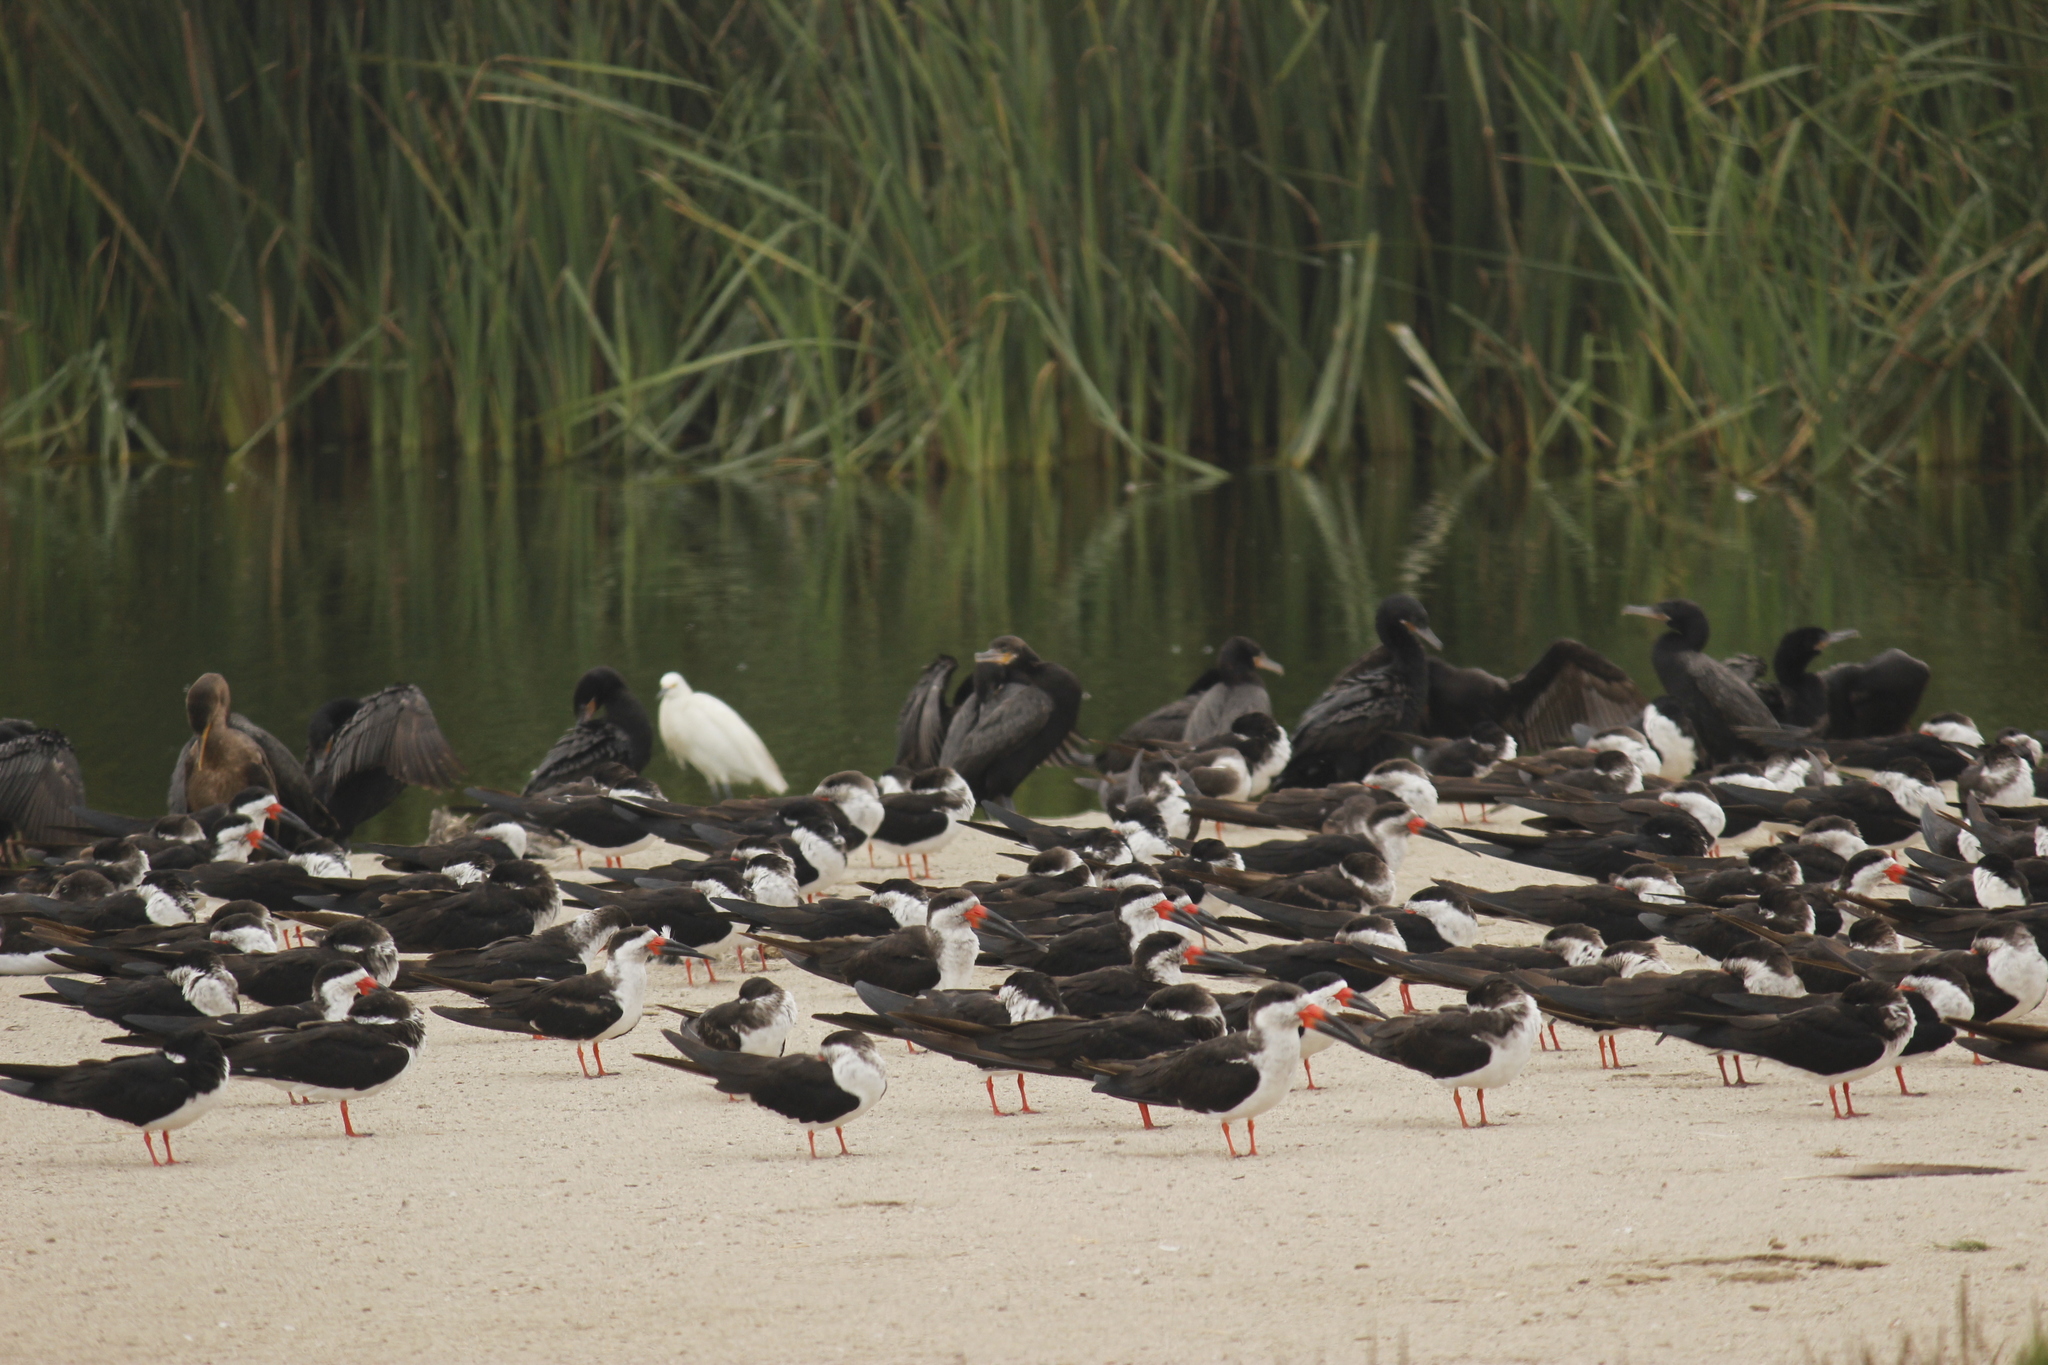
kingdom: Animalia
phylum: Chordata
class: Aves
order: Charadriiformes
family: Laridae
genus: Rynchops
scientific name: Rynchops niger
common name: Black skimmer
